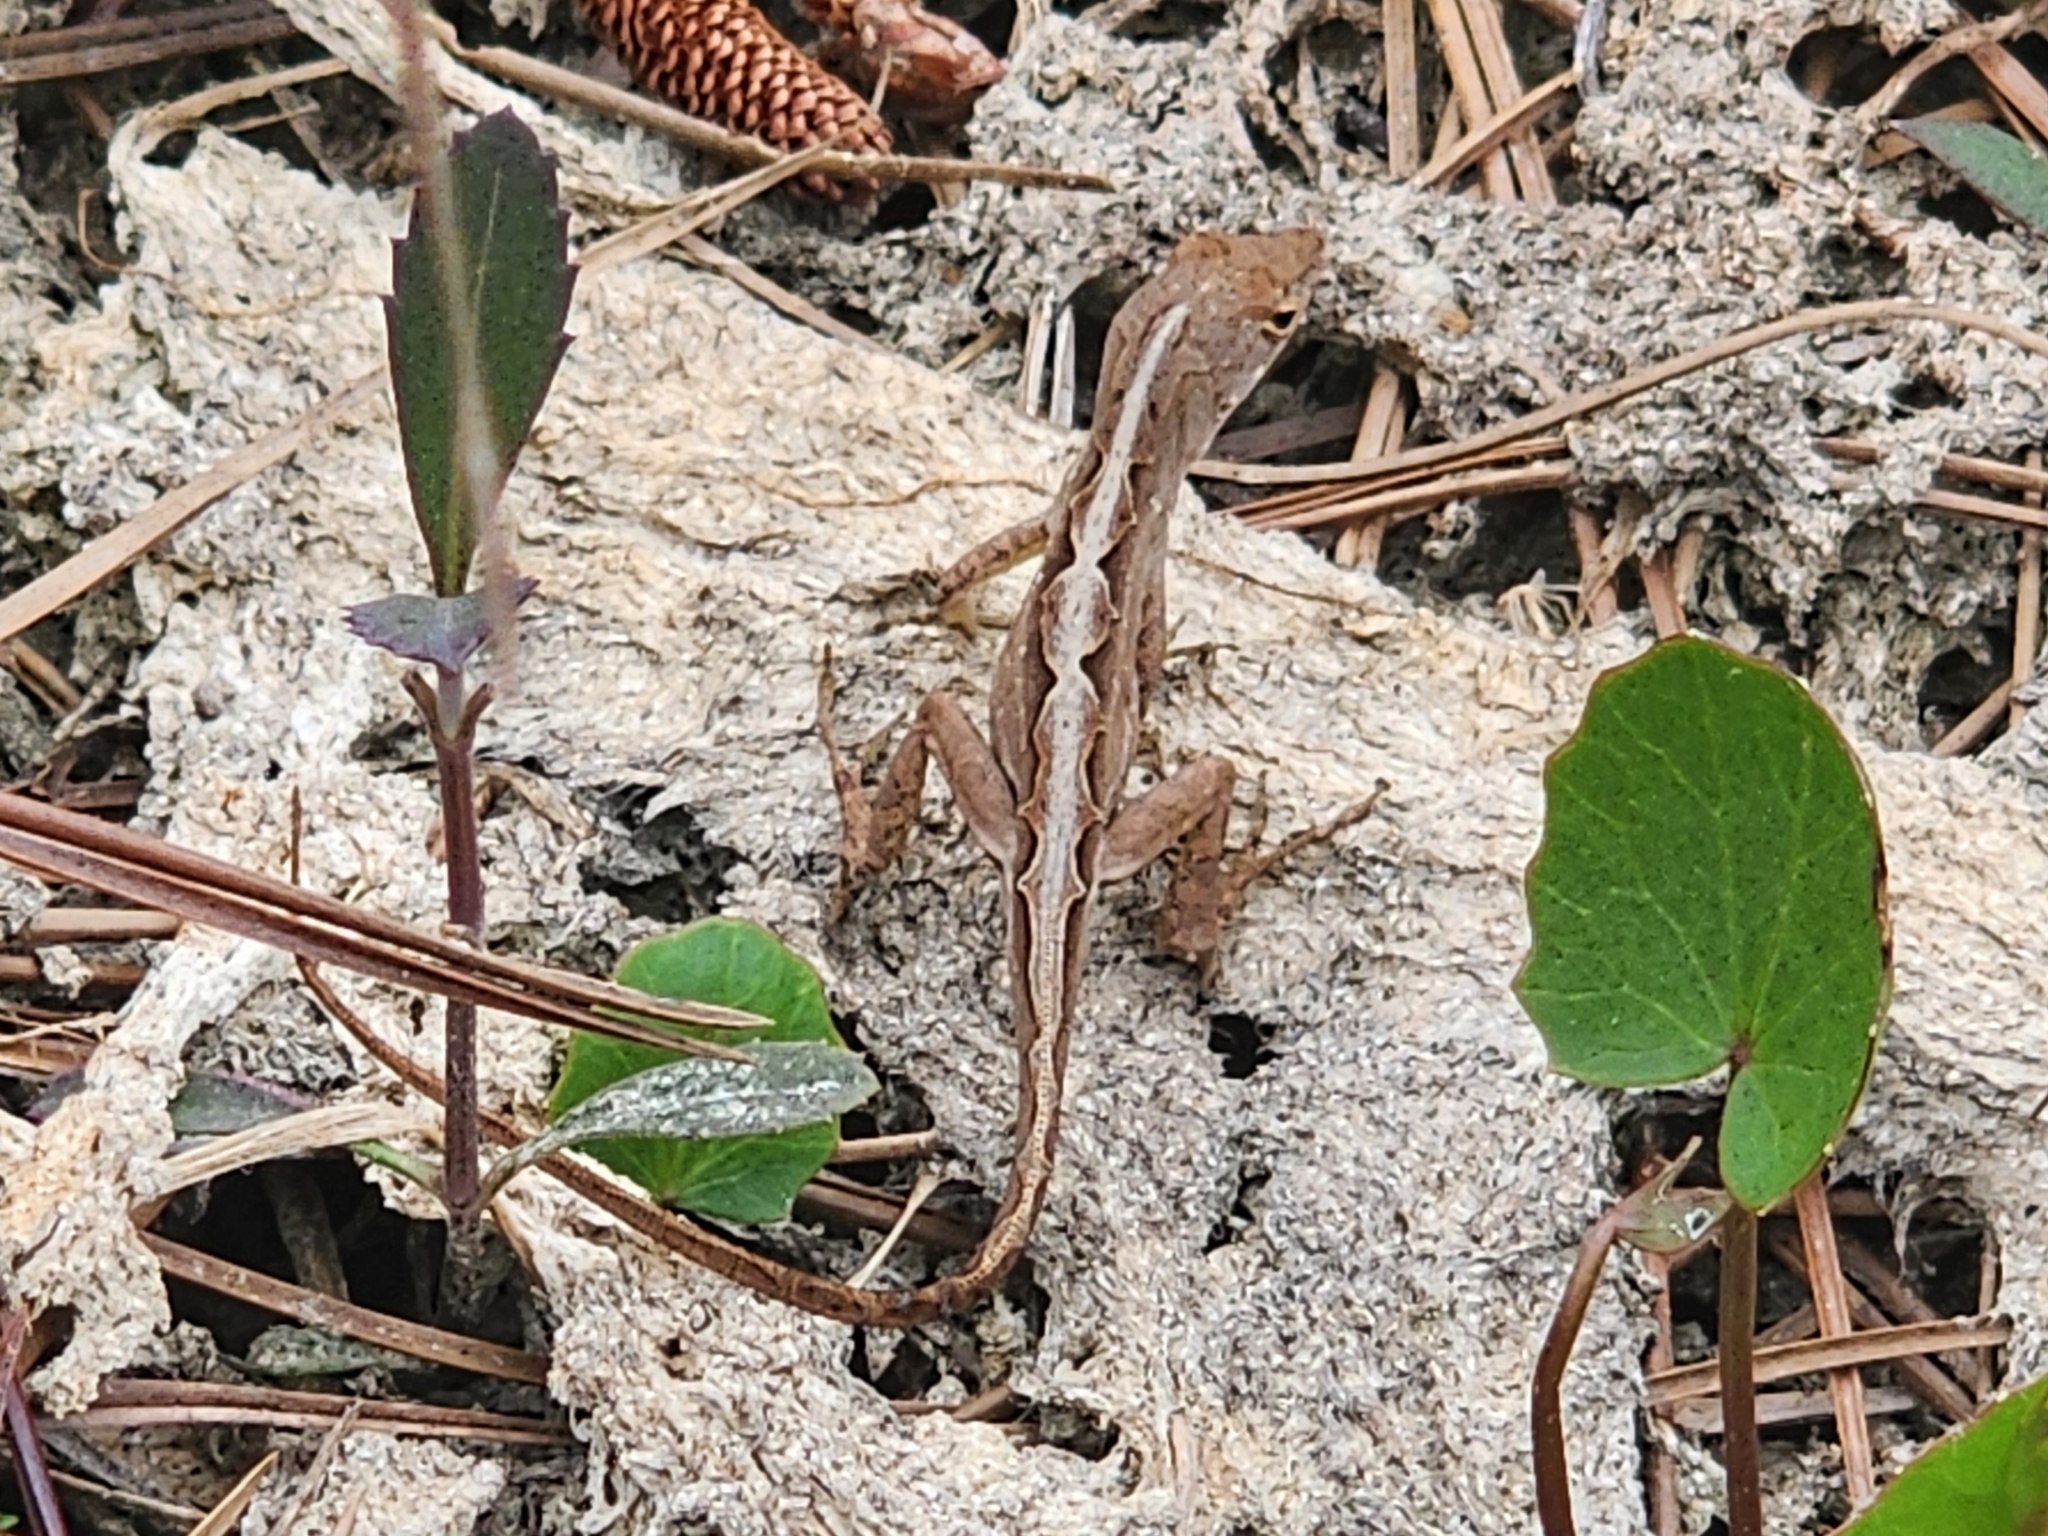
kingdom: Animalia
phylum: Chordata
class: Squamata
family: Dactyloidae
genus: Anolis
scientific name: Anolis sagrei
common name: Brown anole
